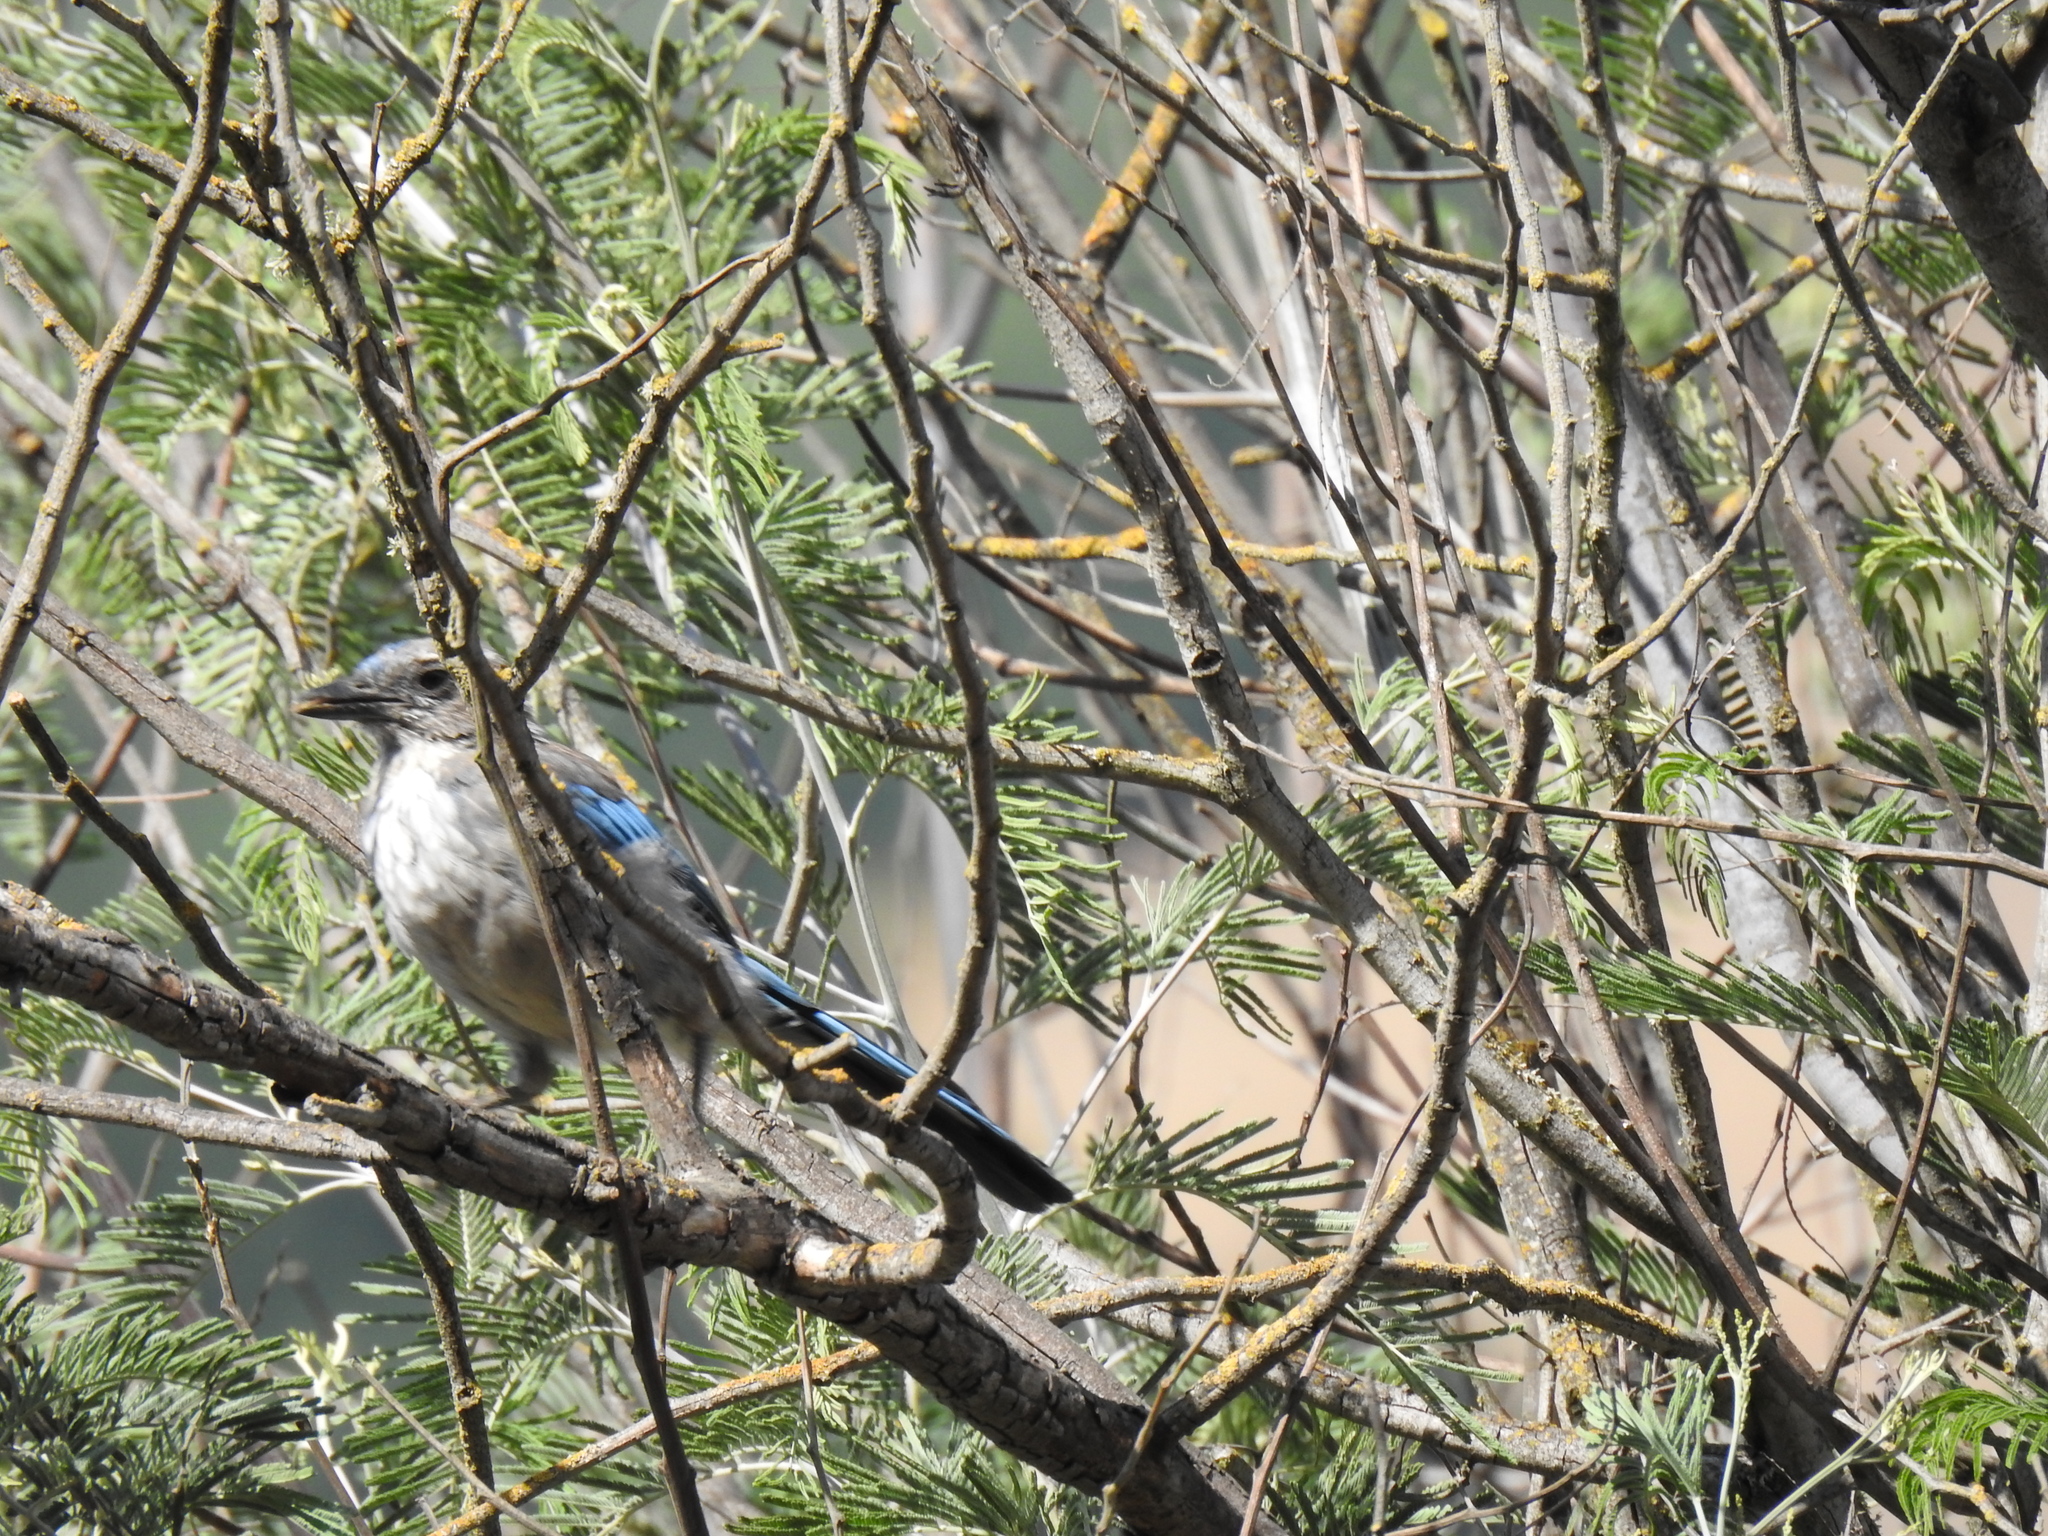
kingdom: Animalia
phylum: Chordata
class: Aves
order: Passeriformes
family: Corvidae
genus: Aphelocoma
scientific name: Aphelocoma californica
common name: California scrub-jay
